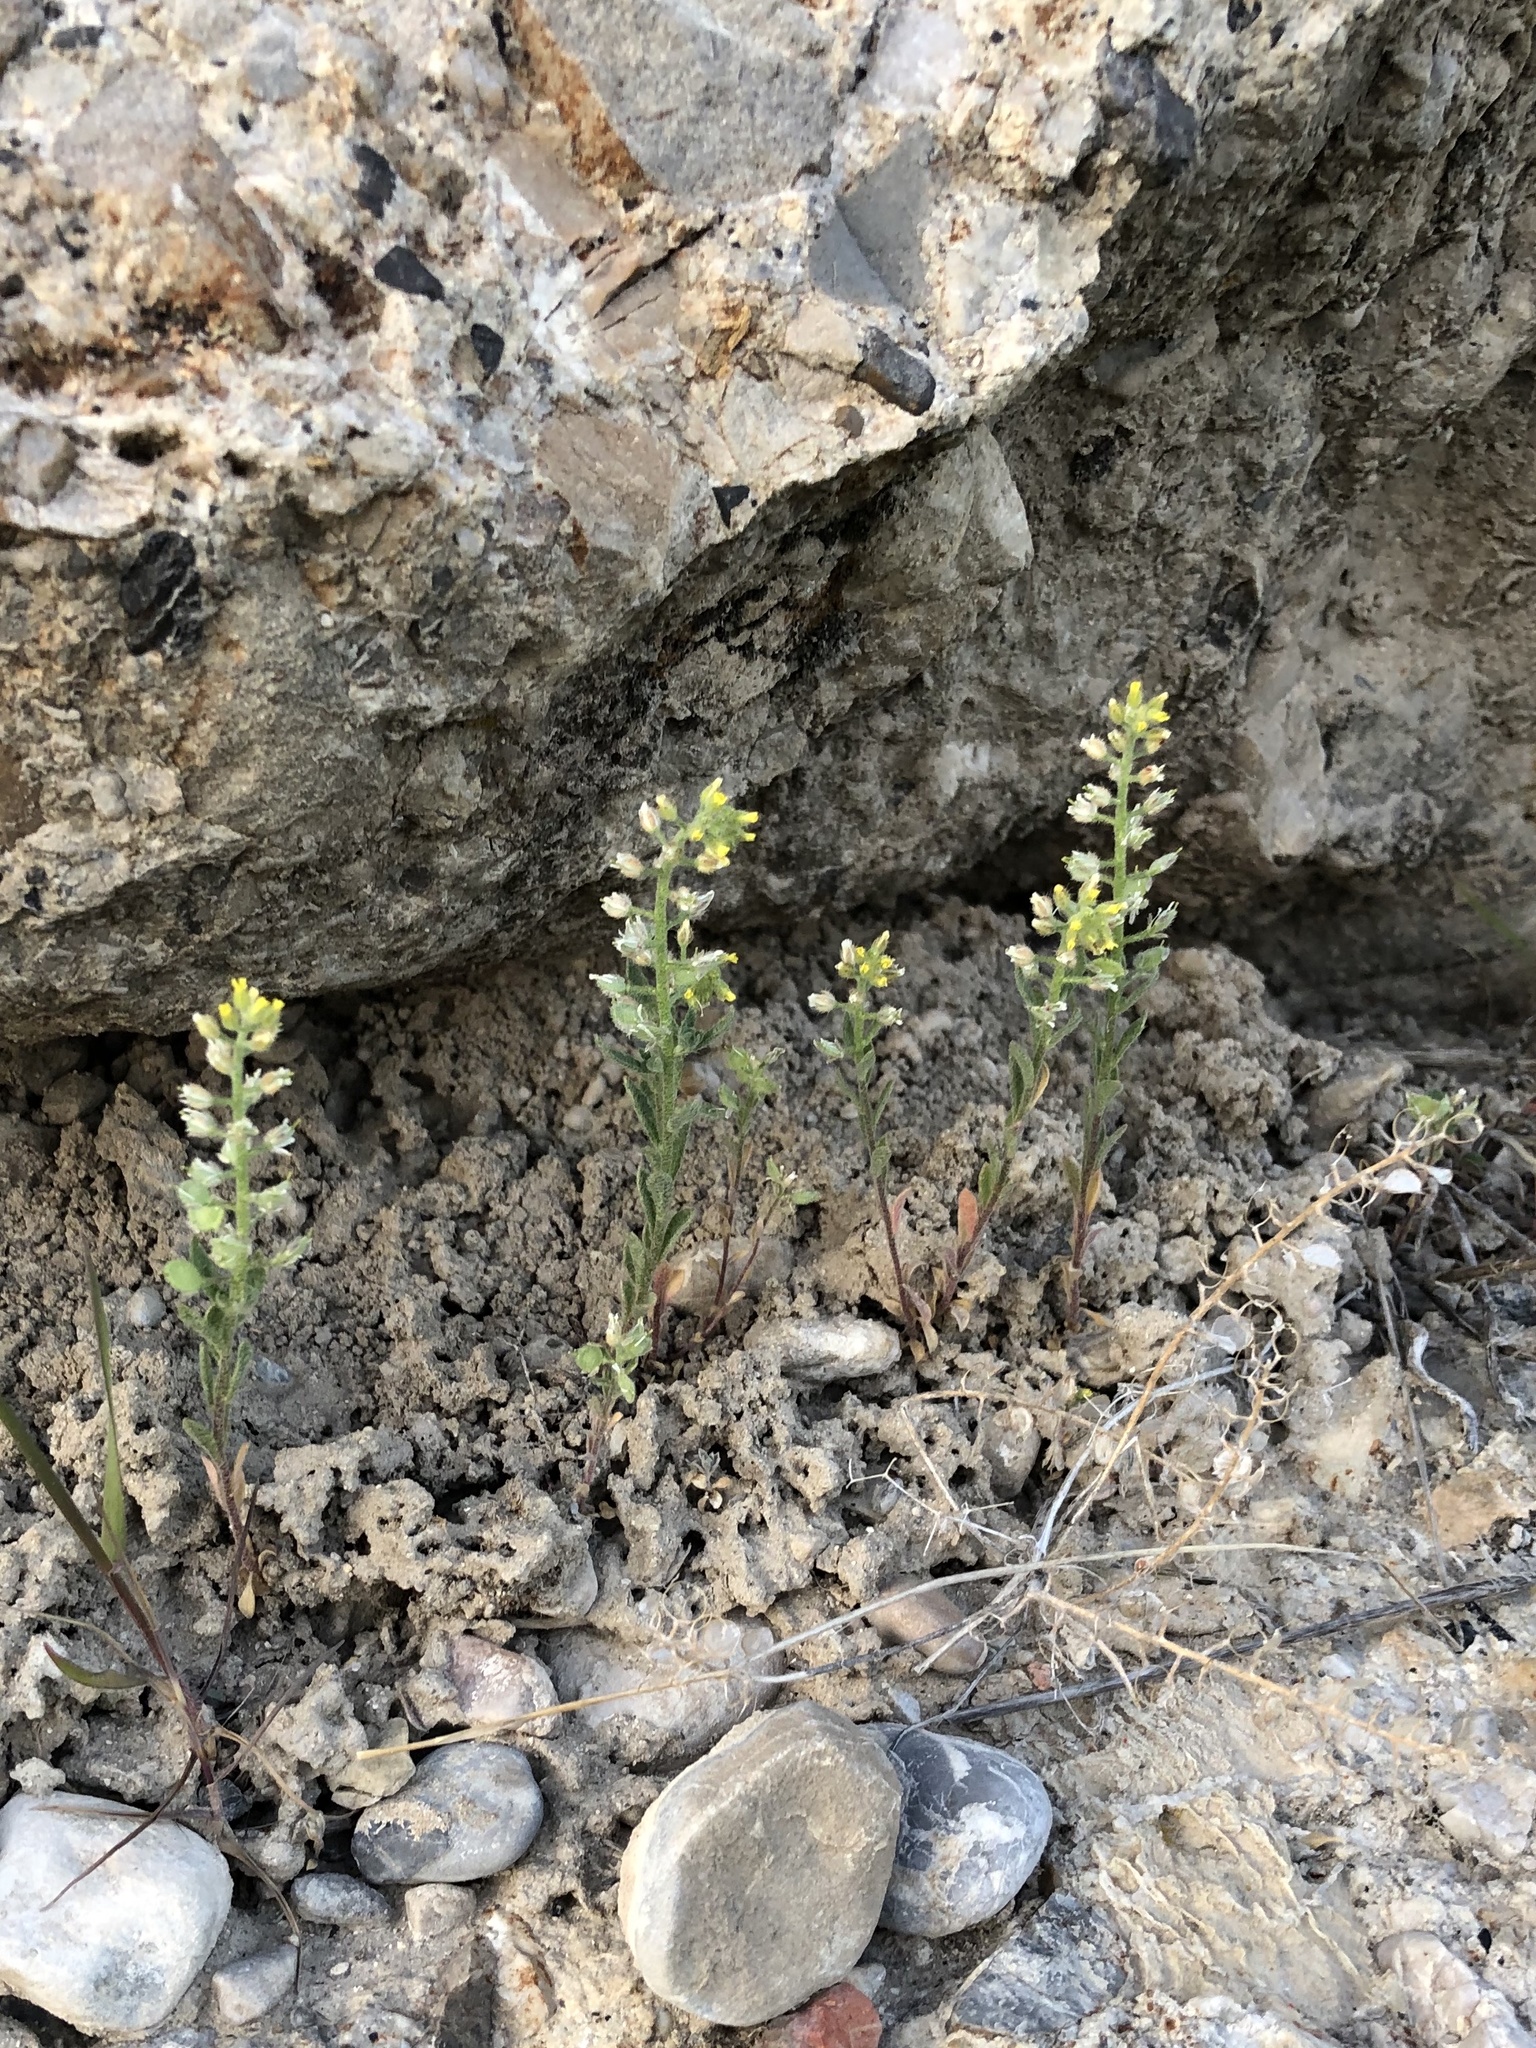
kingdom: Plantae
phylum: Tracheophyta
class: Magnoliopsida
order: Brassicales
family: Brassicaceae
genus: Alyssum
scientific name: Alyssum turkestanicum
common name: Desert alyssum
